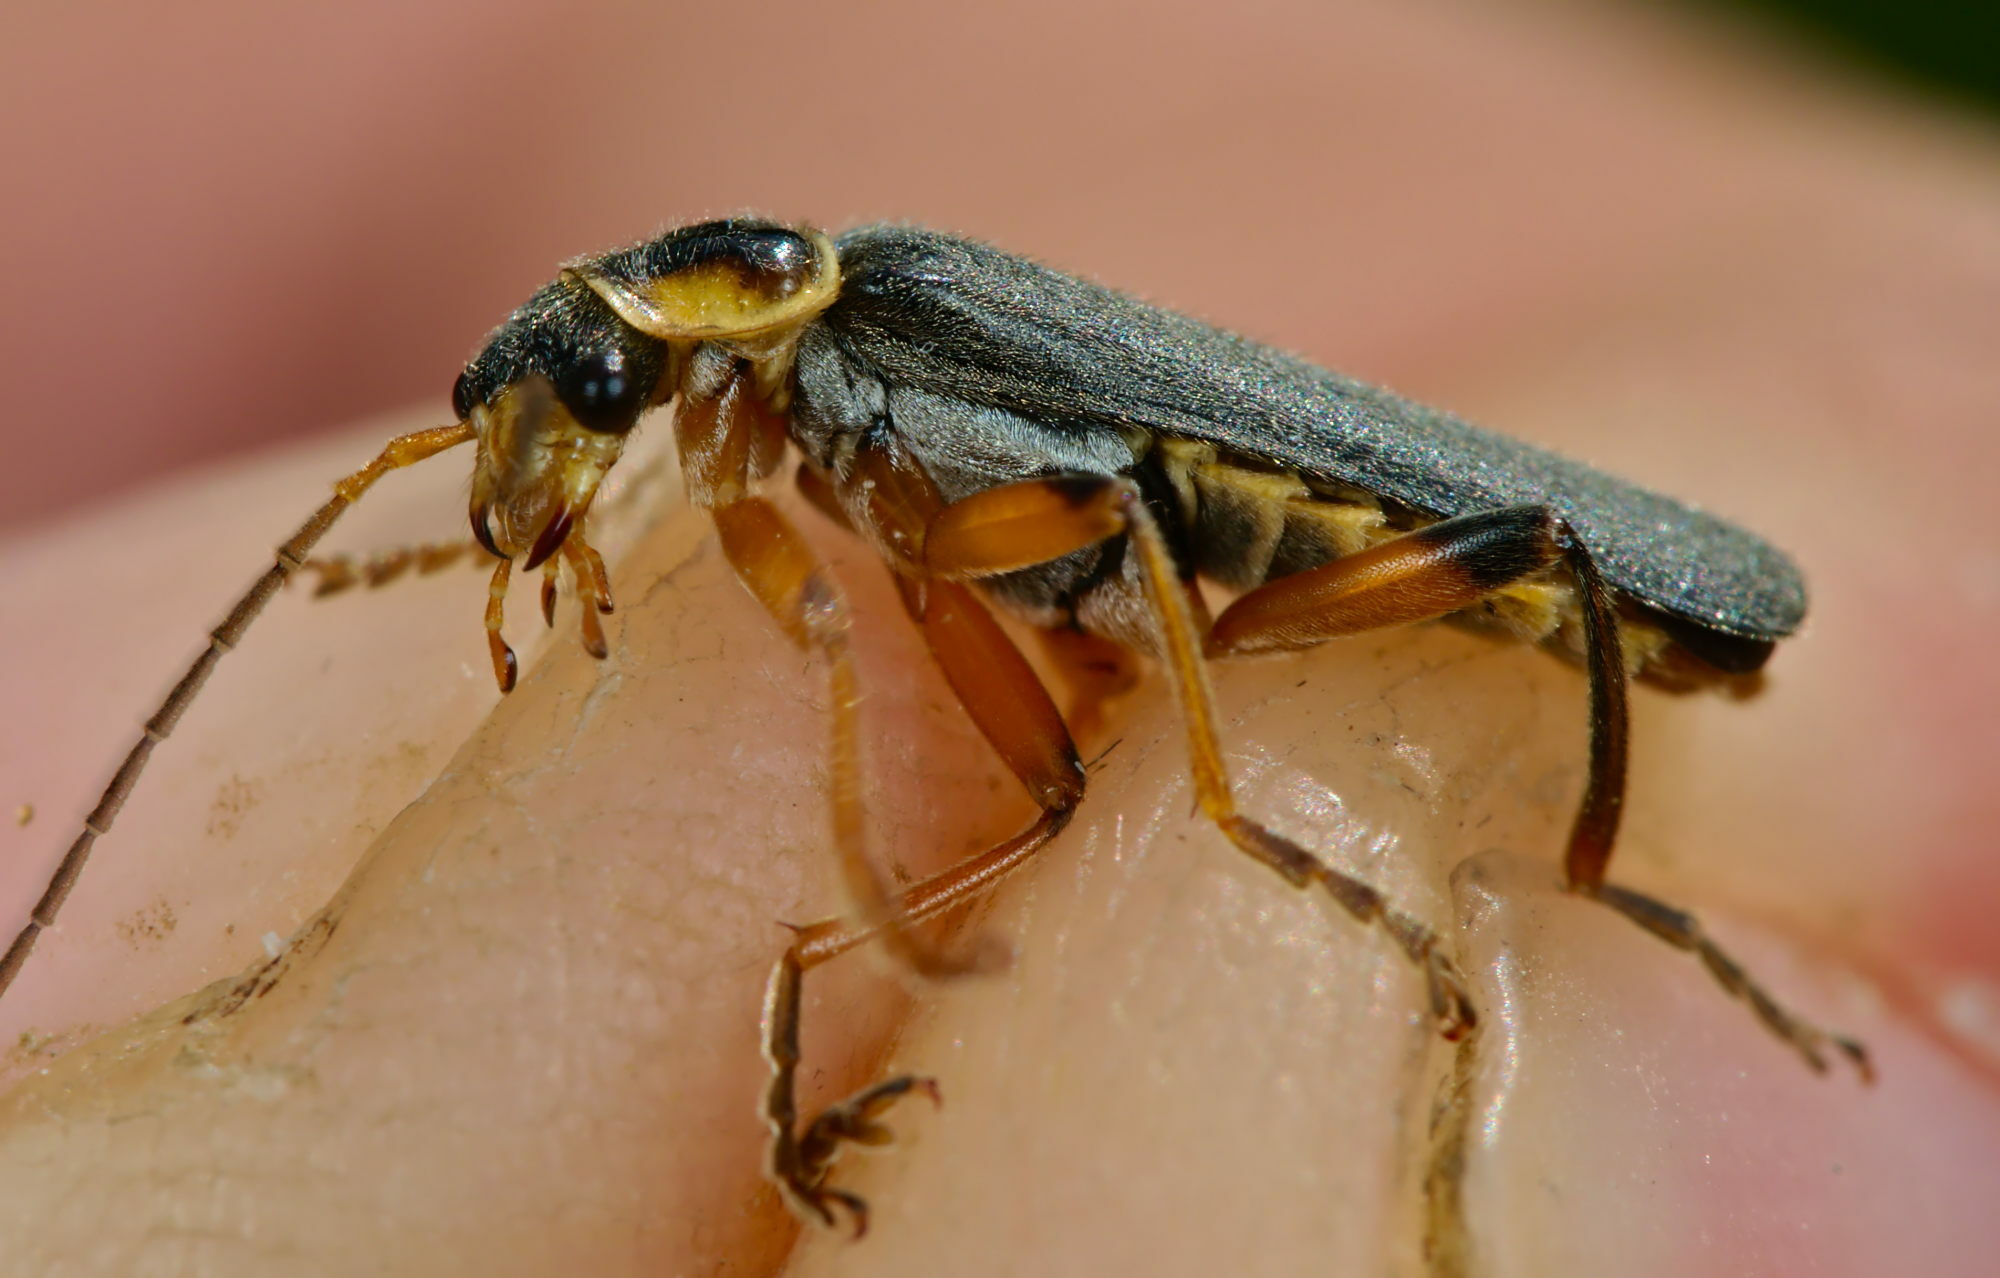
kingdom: Animalia
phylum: Arthropoda
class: Insecta
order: Coleoptera
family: Cantharidae
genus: Cantharis
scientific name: Cantharis nigricans
